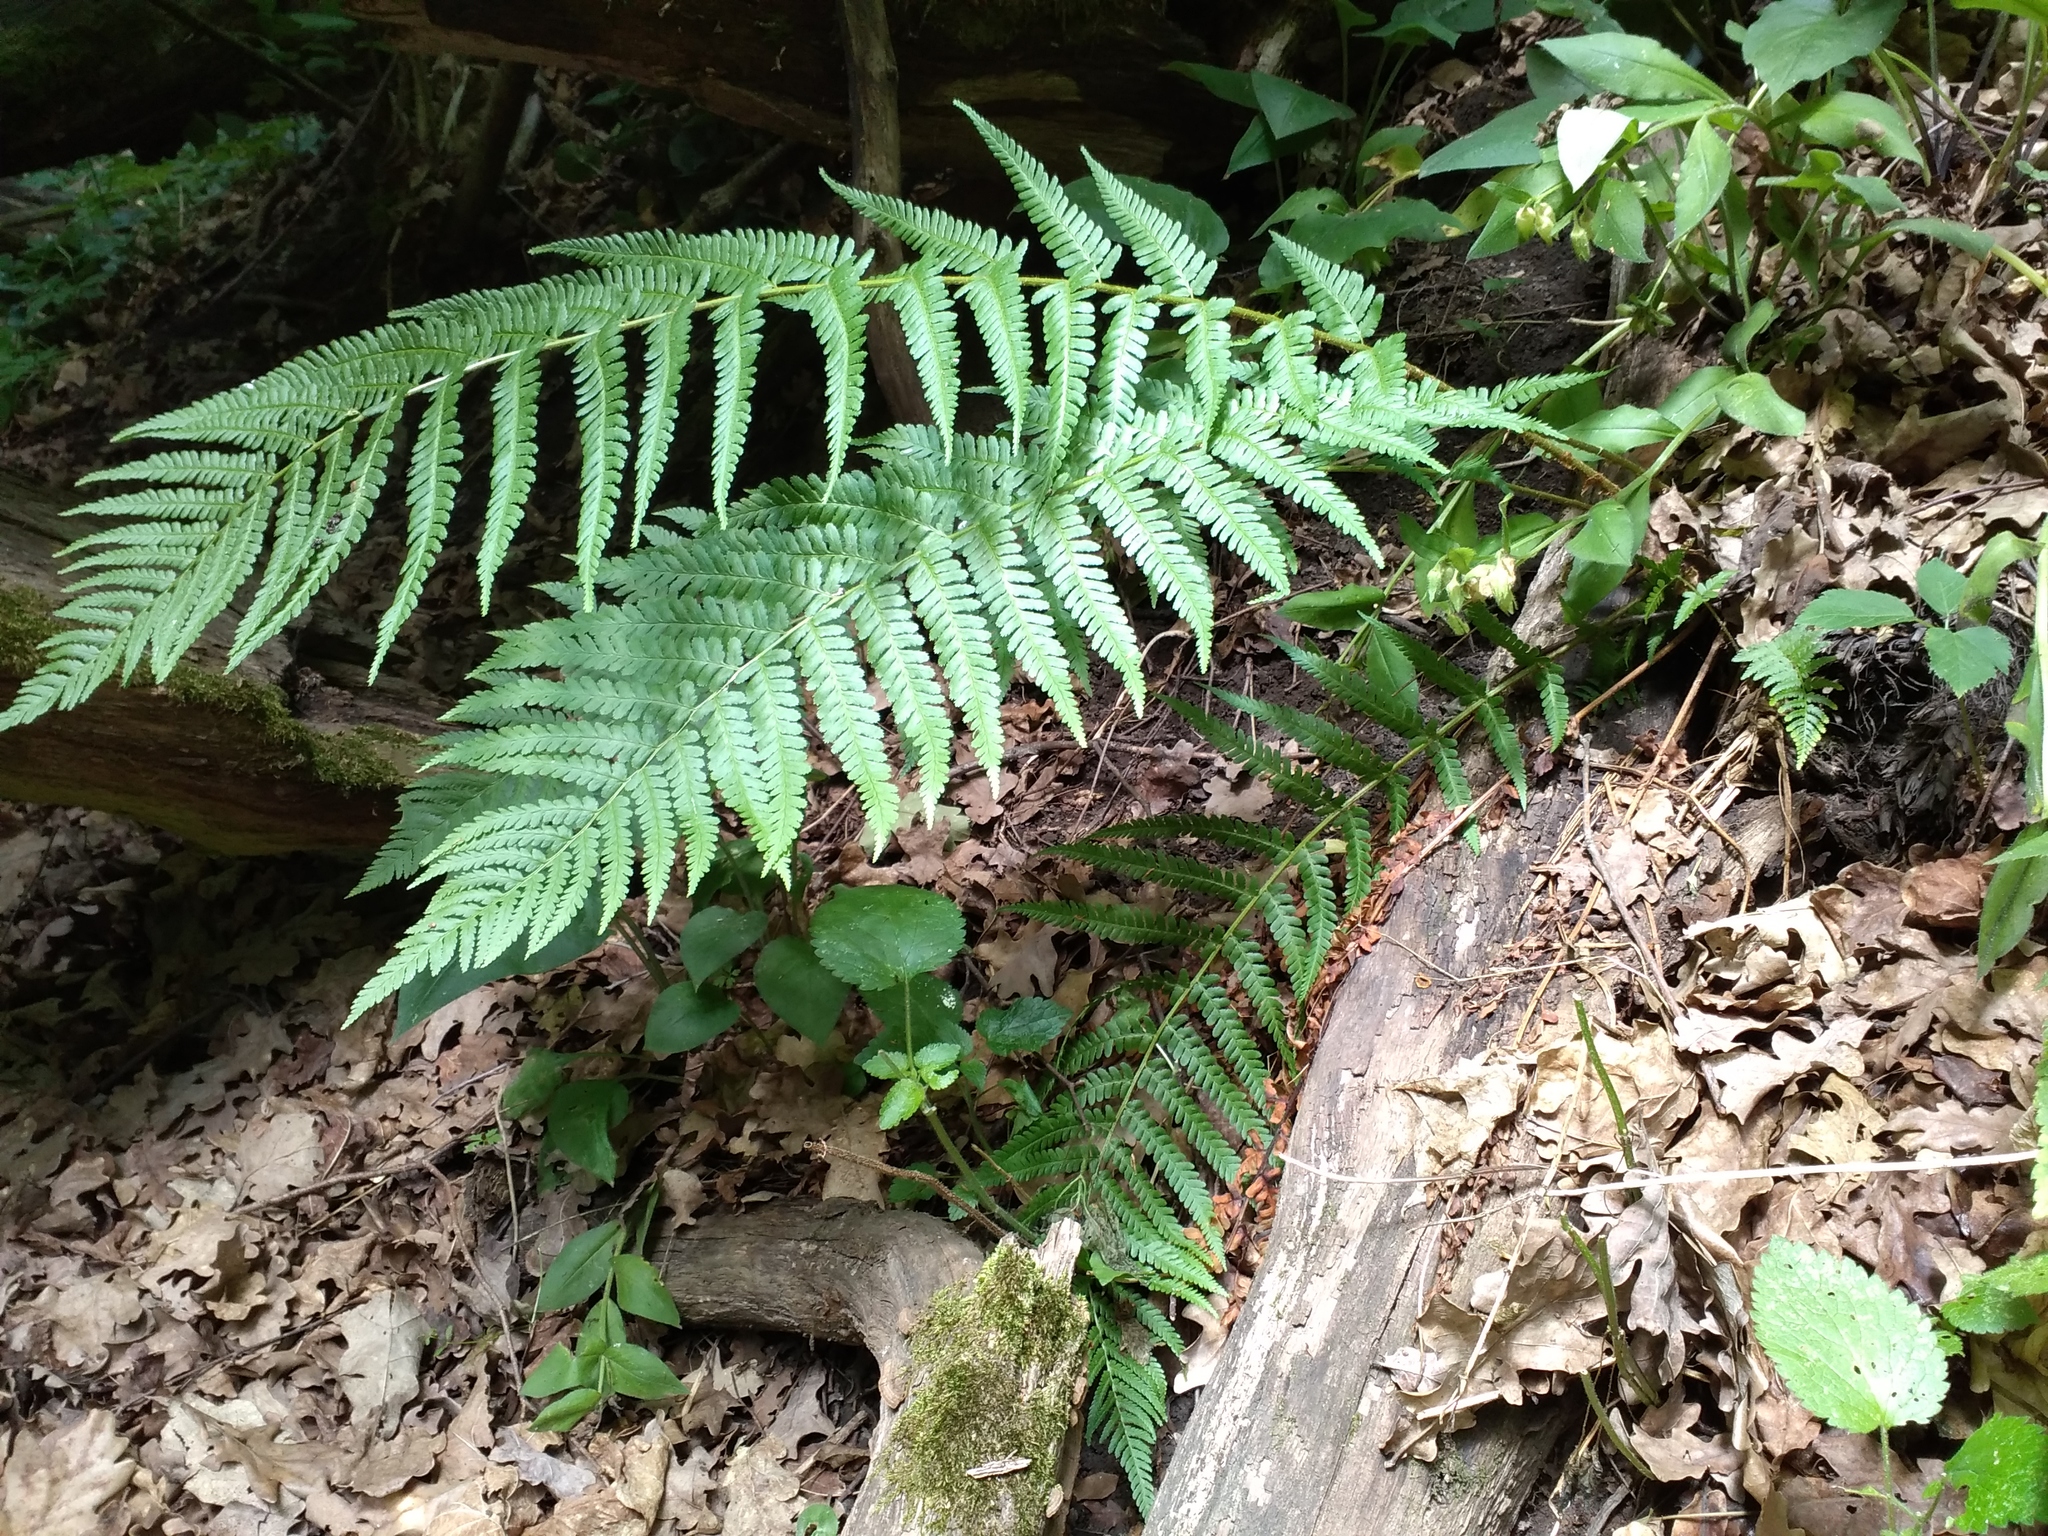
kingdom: Plantae
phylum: Tracheophyta
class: Polypodiopsida
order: Polypodiales
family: Dryopteridaceae
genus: Dryopteris
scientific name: Dryopteris filix-mas
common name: Male fern
